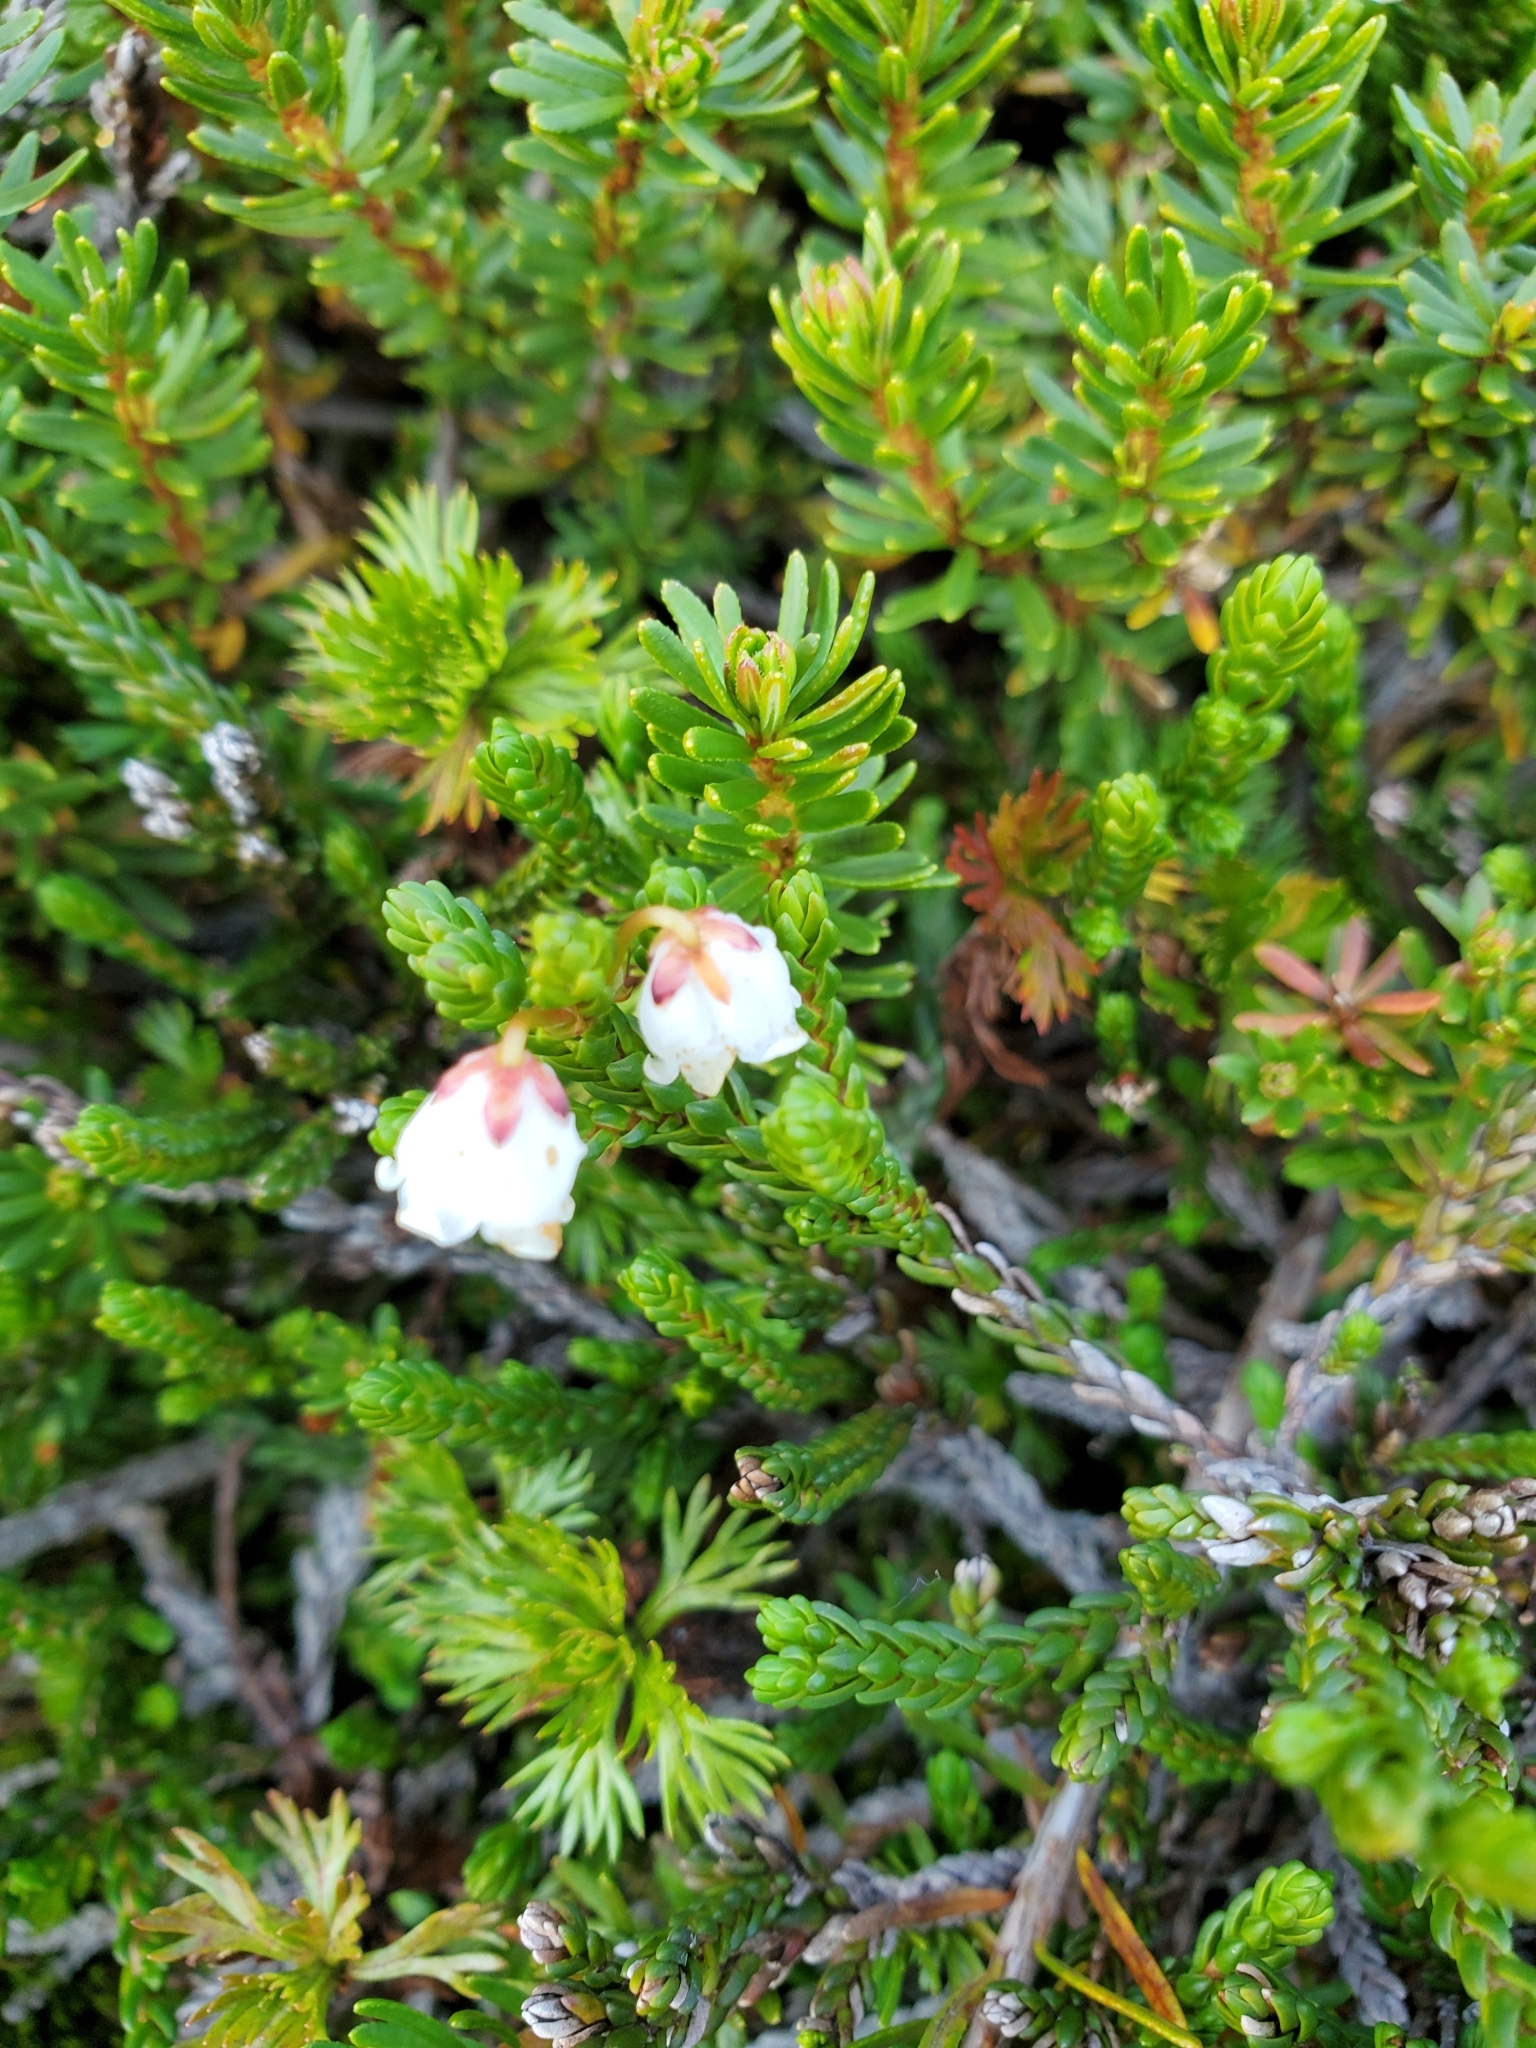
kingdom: Plantae
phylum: Tracheophyta
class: Magnoliopsida
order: Ericales
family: Ericaceae
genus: Cassiope
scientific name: Cassiope mertensiana
